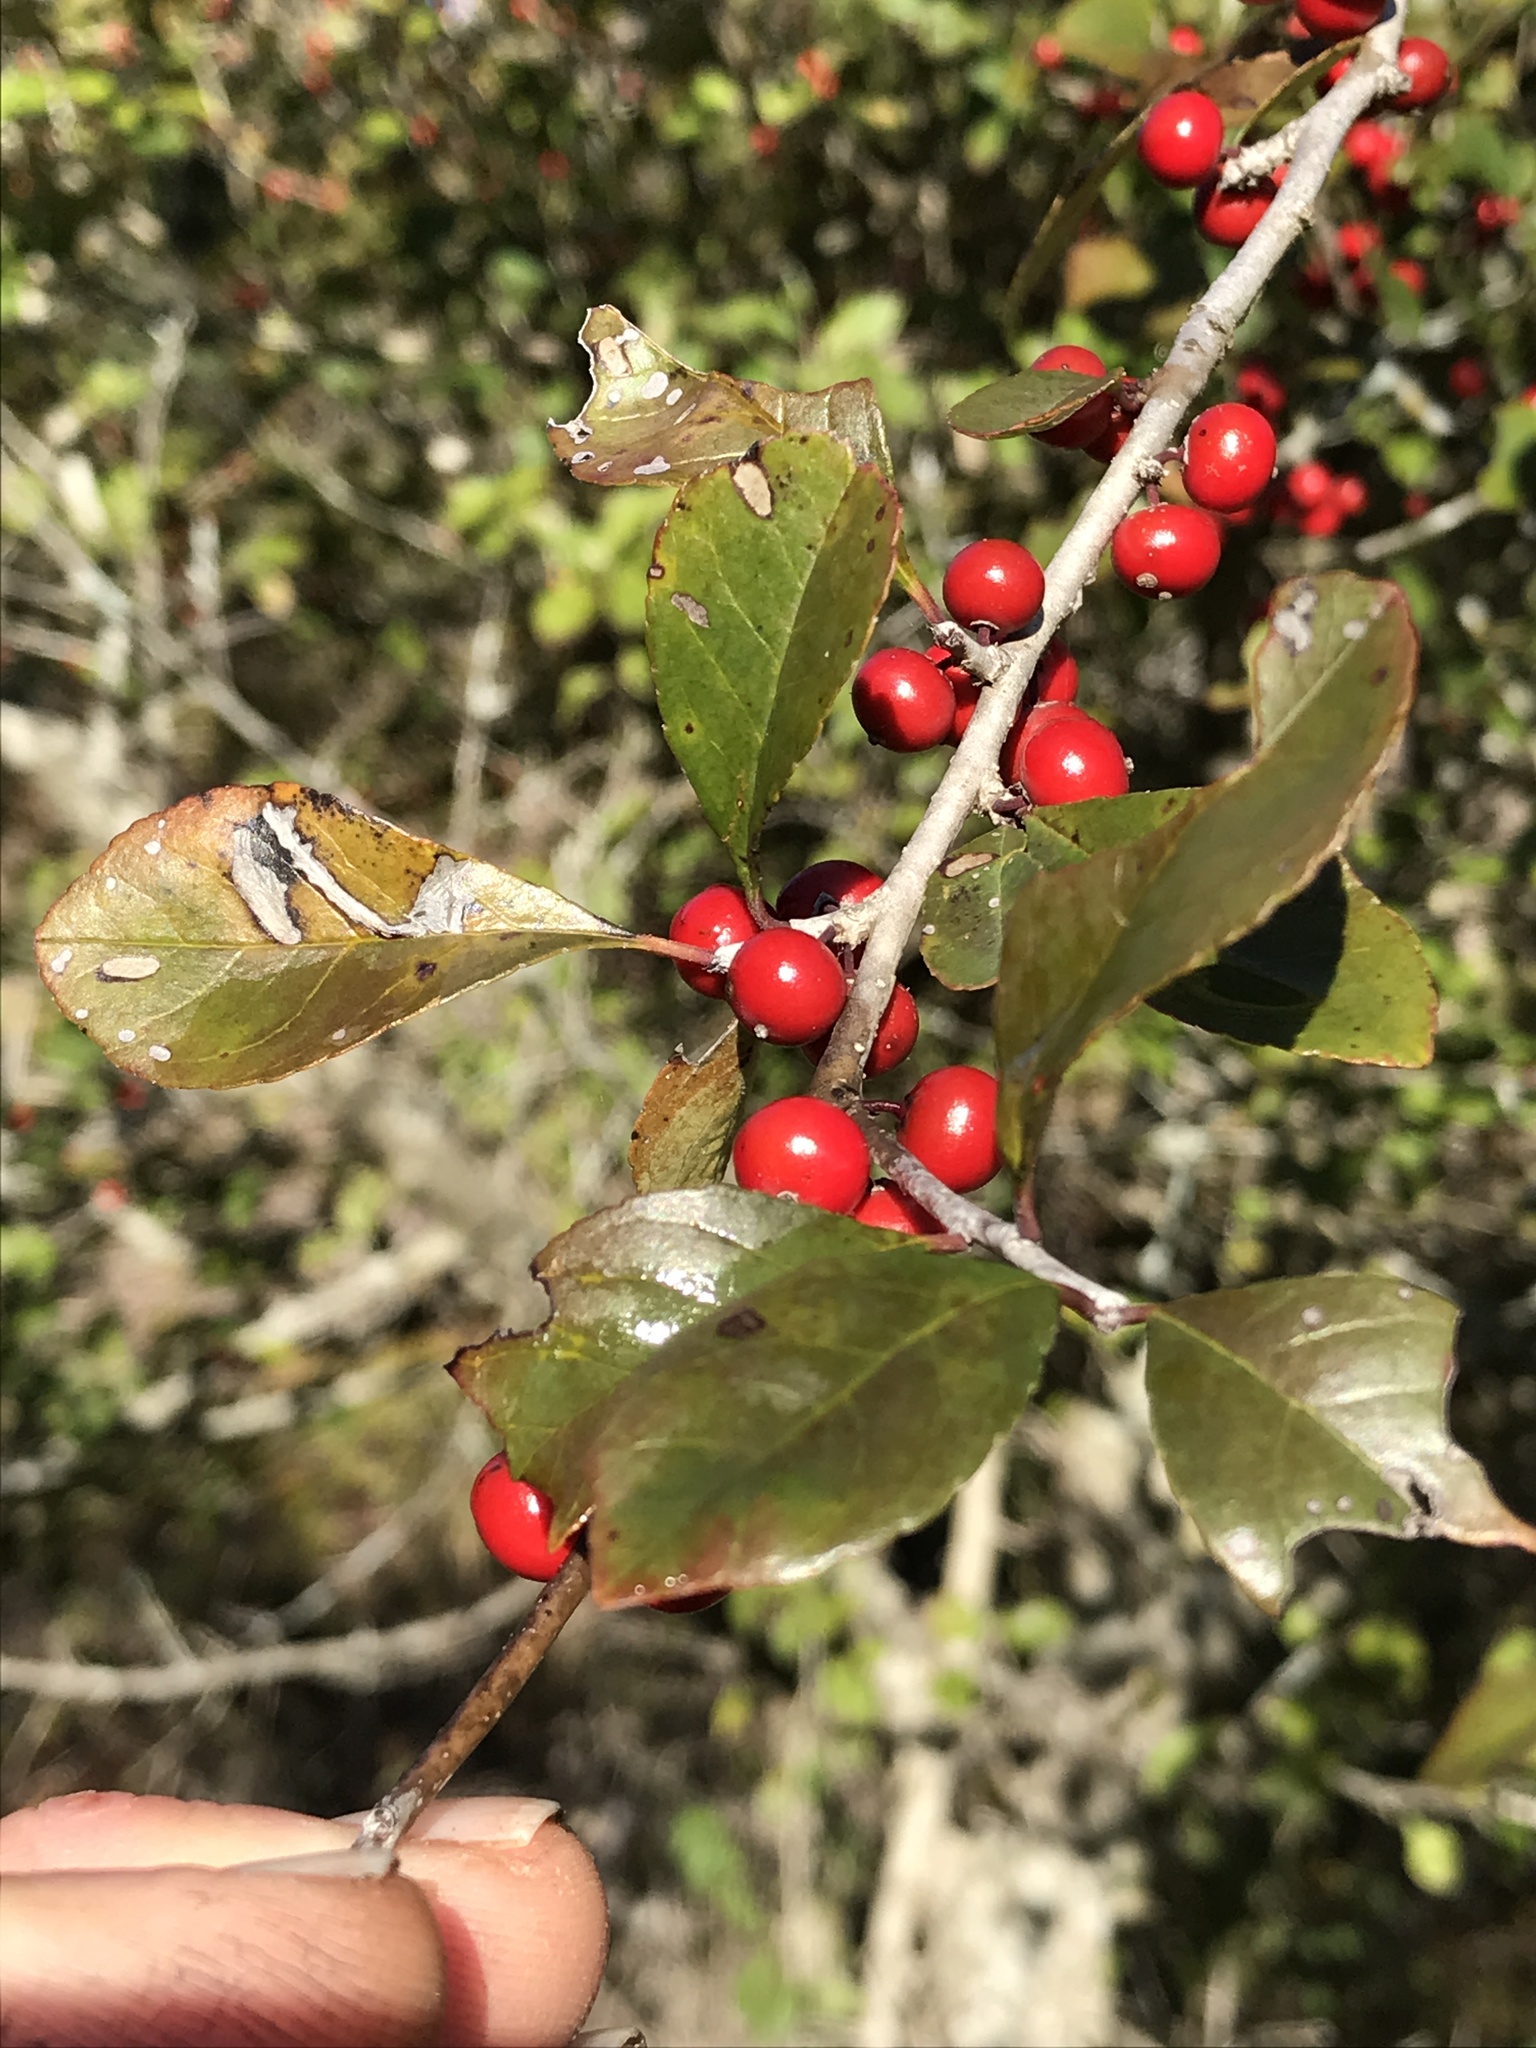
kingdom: Plantae
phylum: Tracheophyta
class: Magnoliopsida
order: Aquifoliales
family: Aquifoliaceae
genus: Ilex
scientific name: Ilex decidua
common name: Possum-haw
